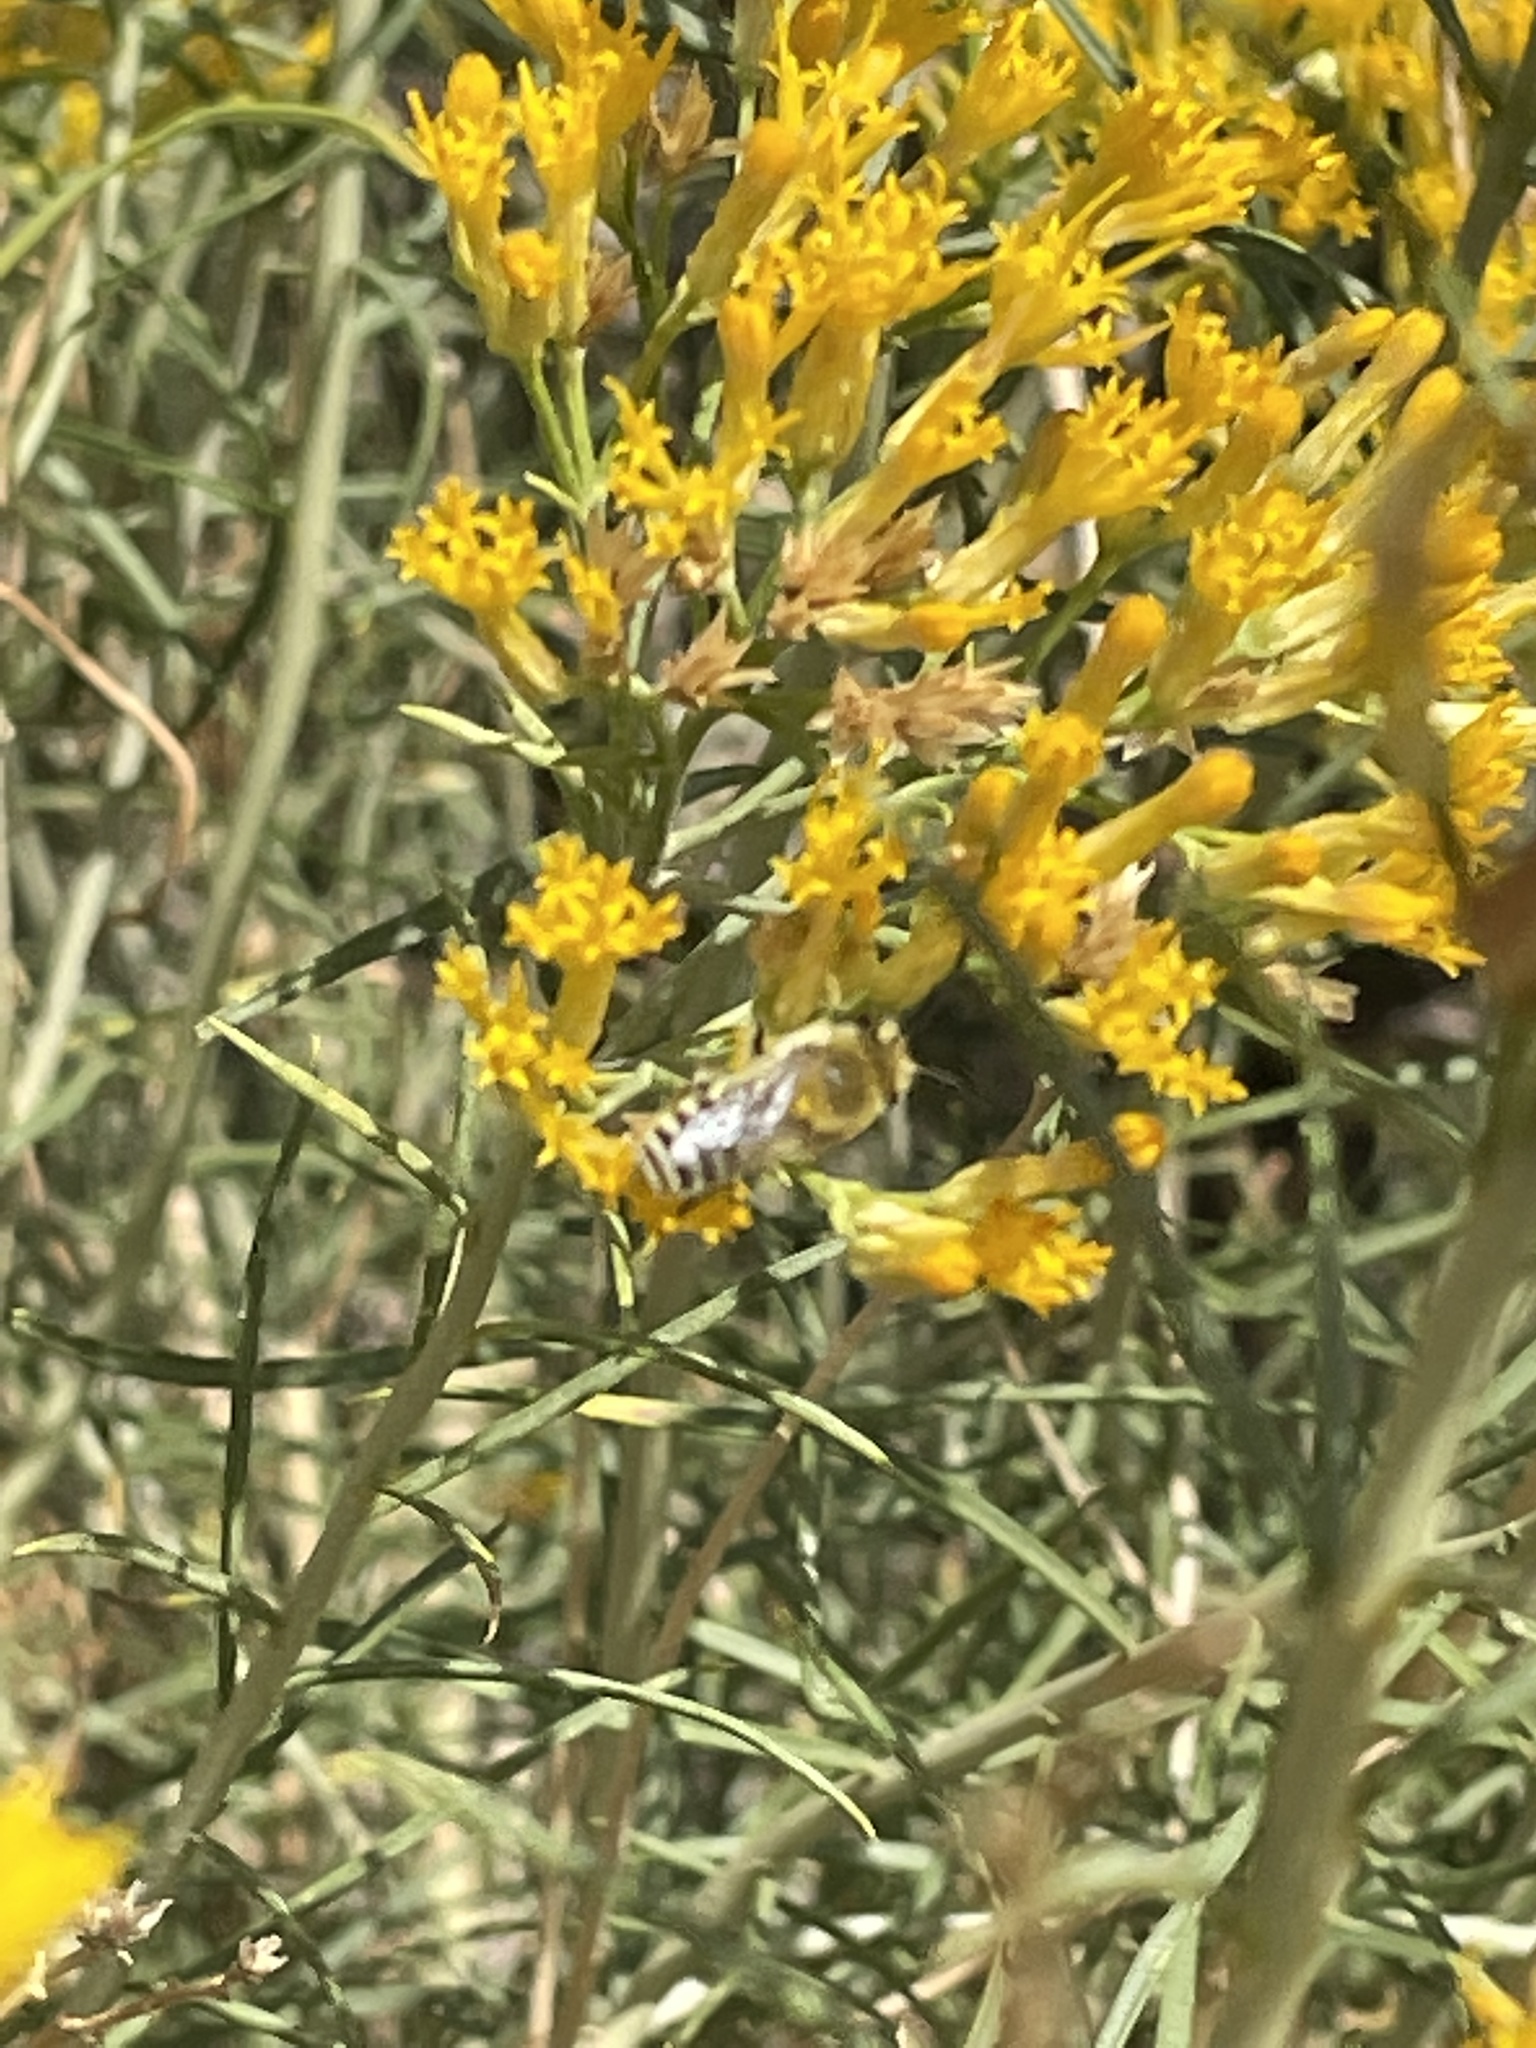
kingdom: Animalia
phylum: Arthropoda
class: Insecta
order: Hymenoptera
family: Colletidae
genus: Colletes
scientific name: Colletes
